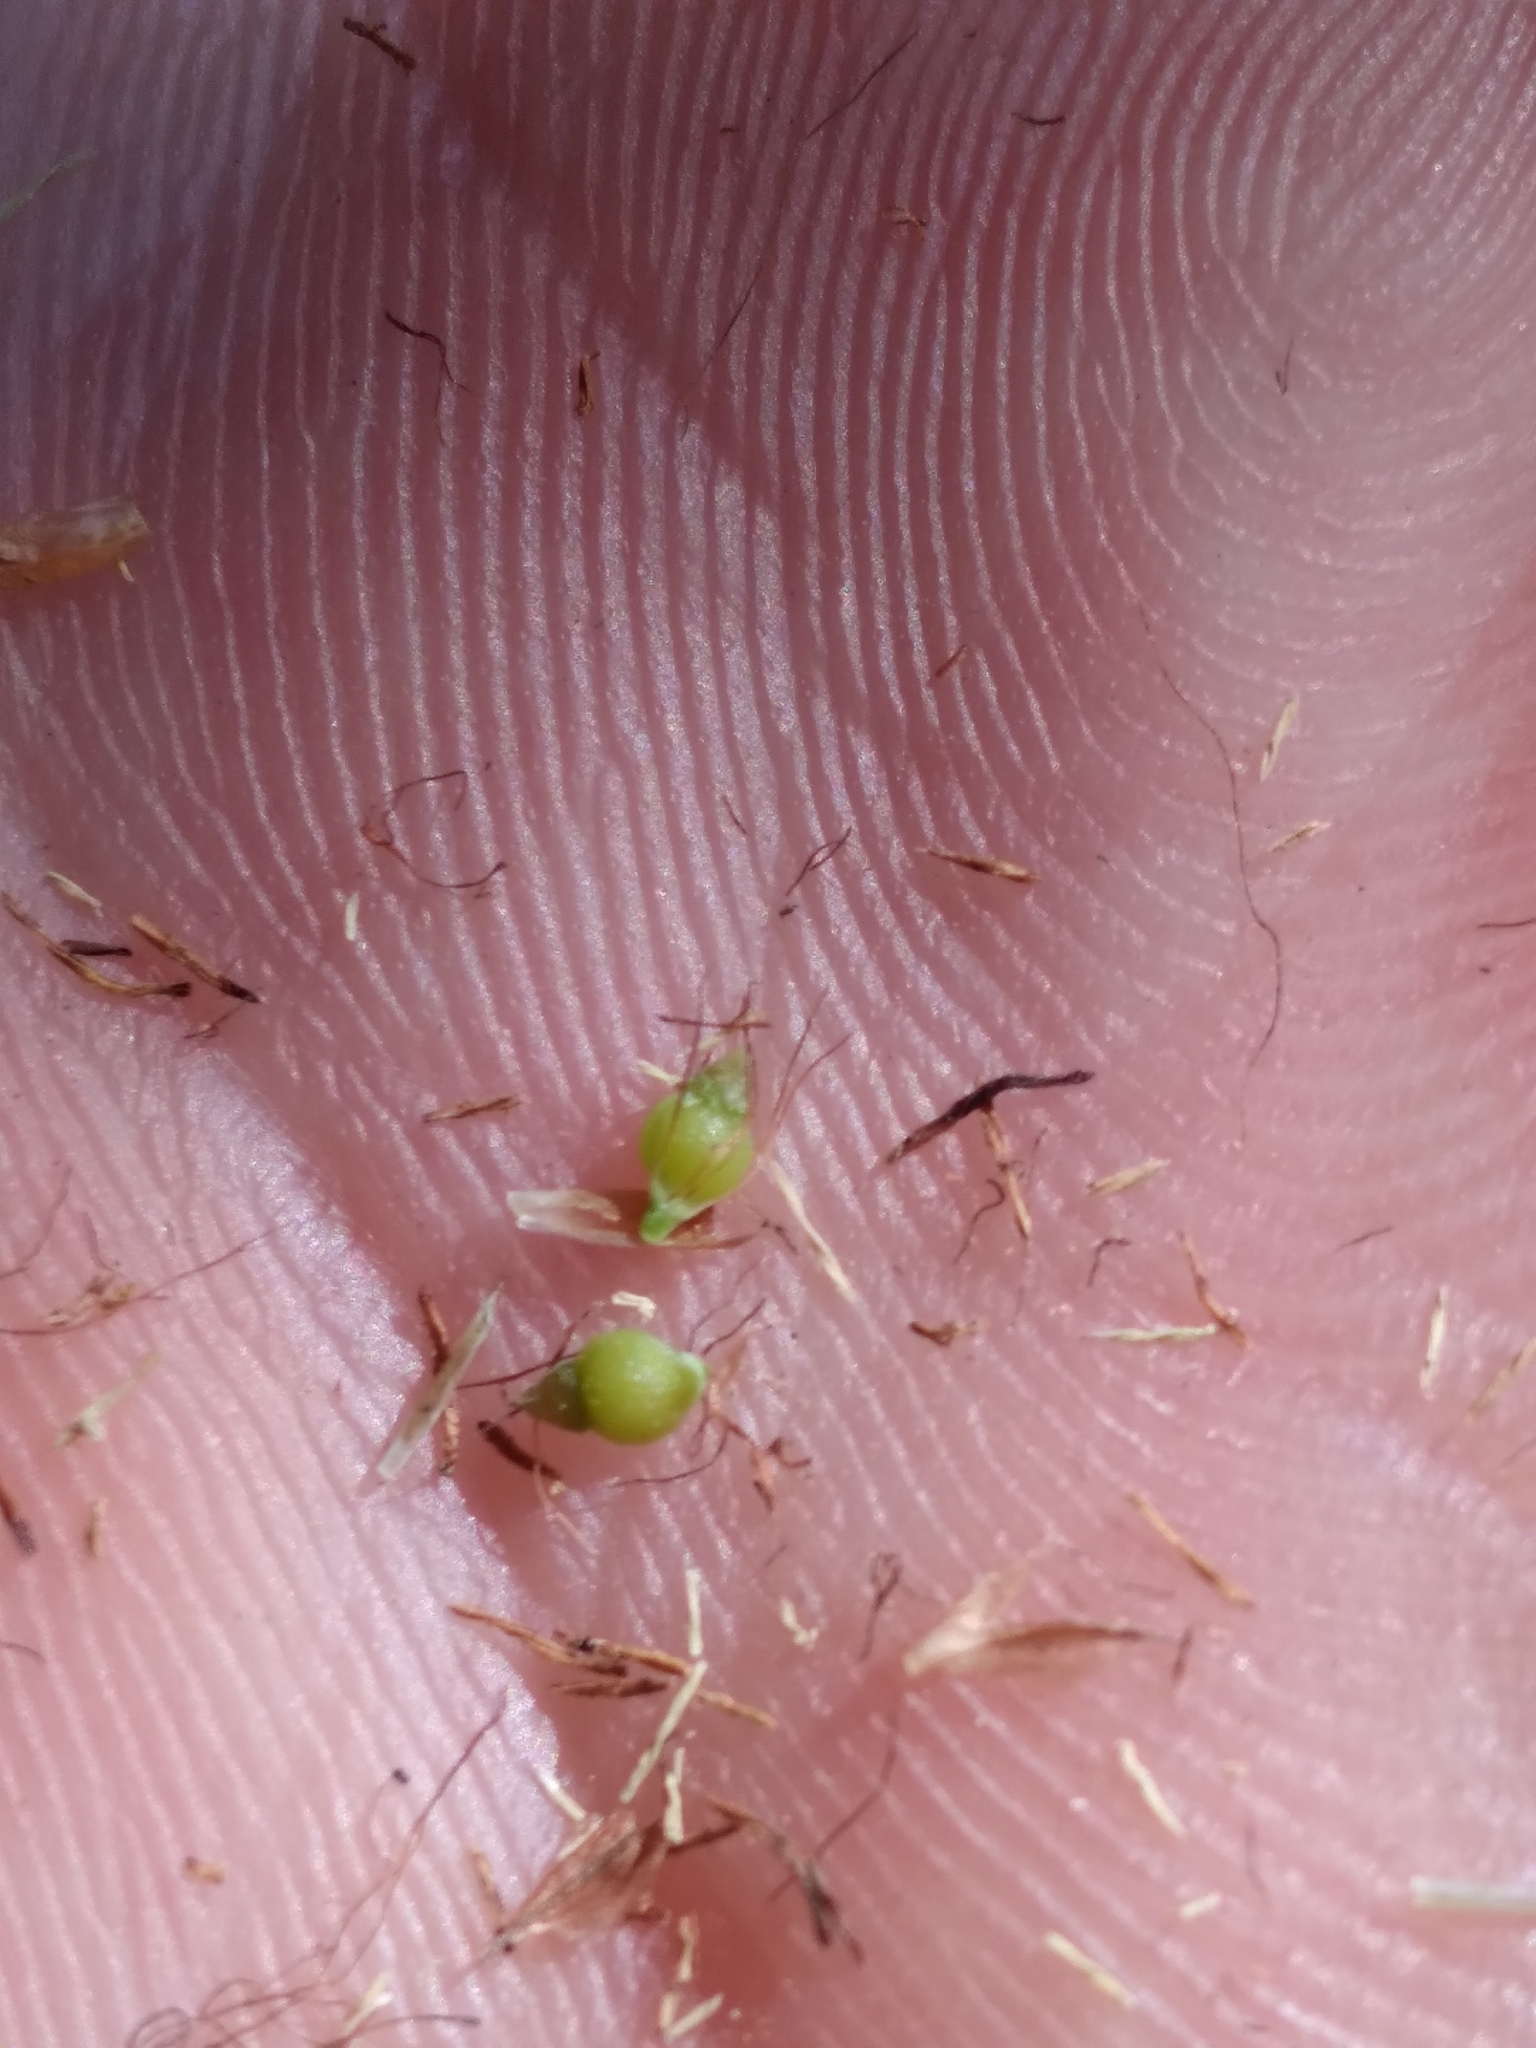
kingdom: Plantae
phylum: Tracheophyta
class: Liliopsida
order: Poales
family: Cyperaceae
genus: Rhynchospora
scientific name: Rhynchospora odorata
